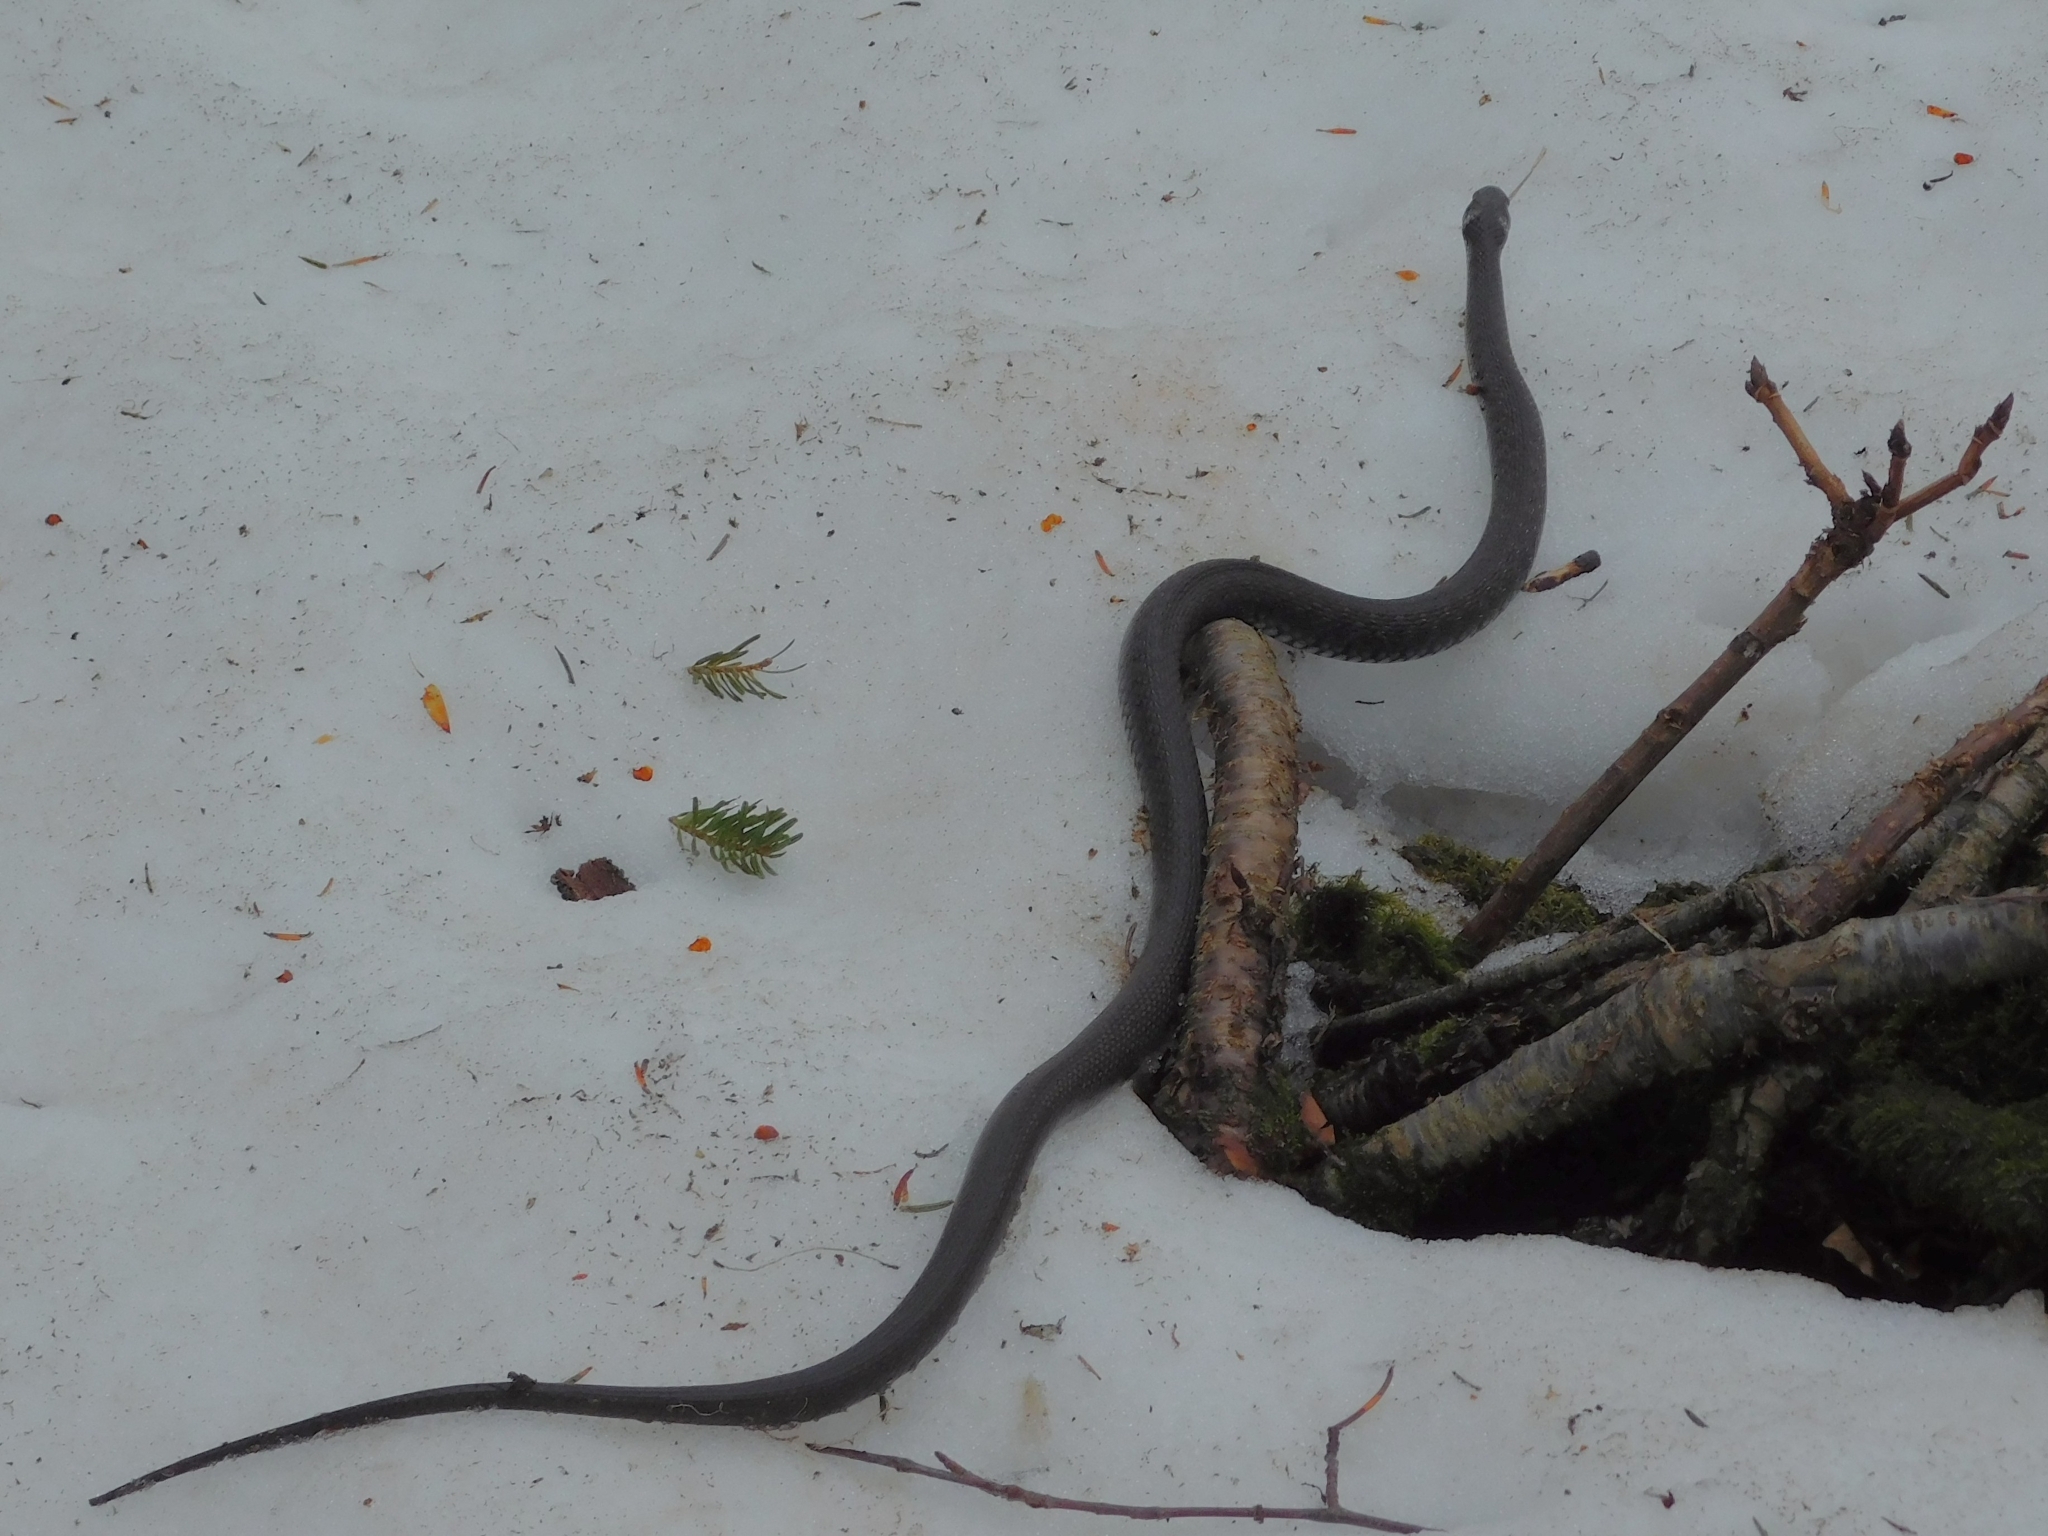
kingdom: Animalia
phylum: Chordata
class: Squamata
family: Colubridae
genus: Natrix
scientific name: Natrix natrix
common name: Grass snake
